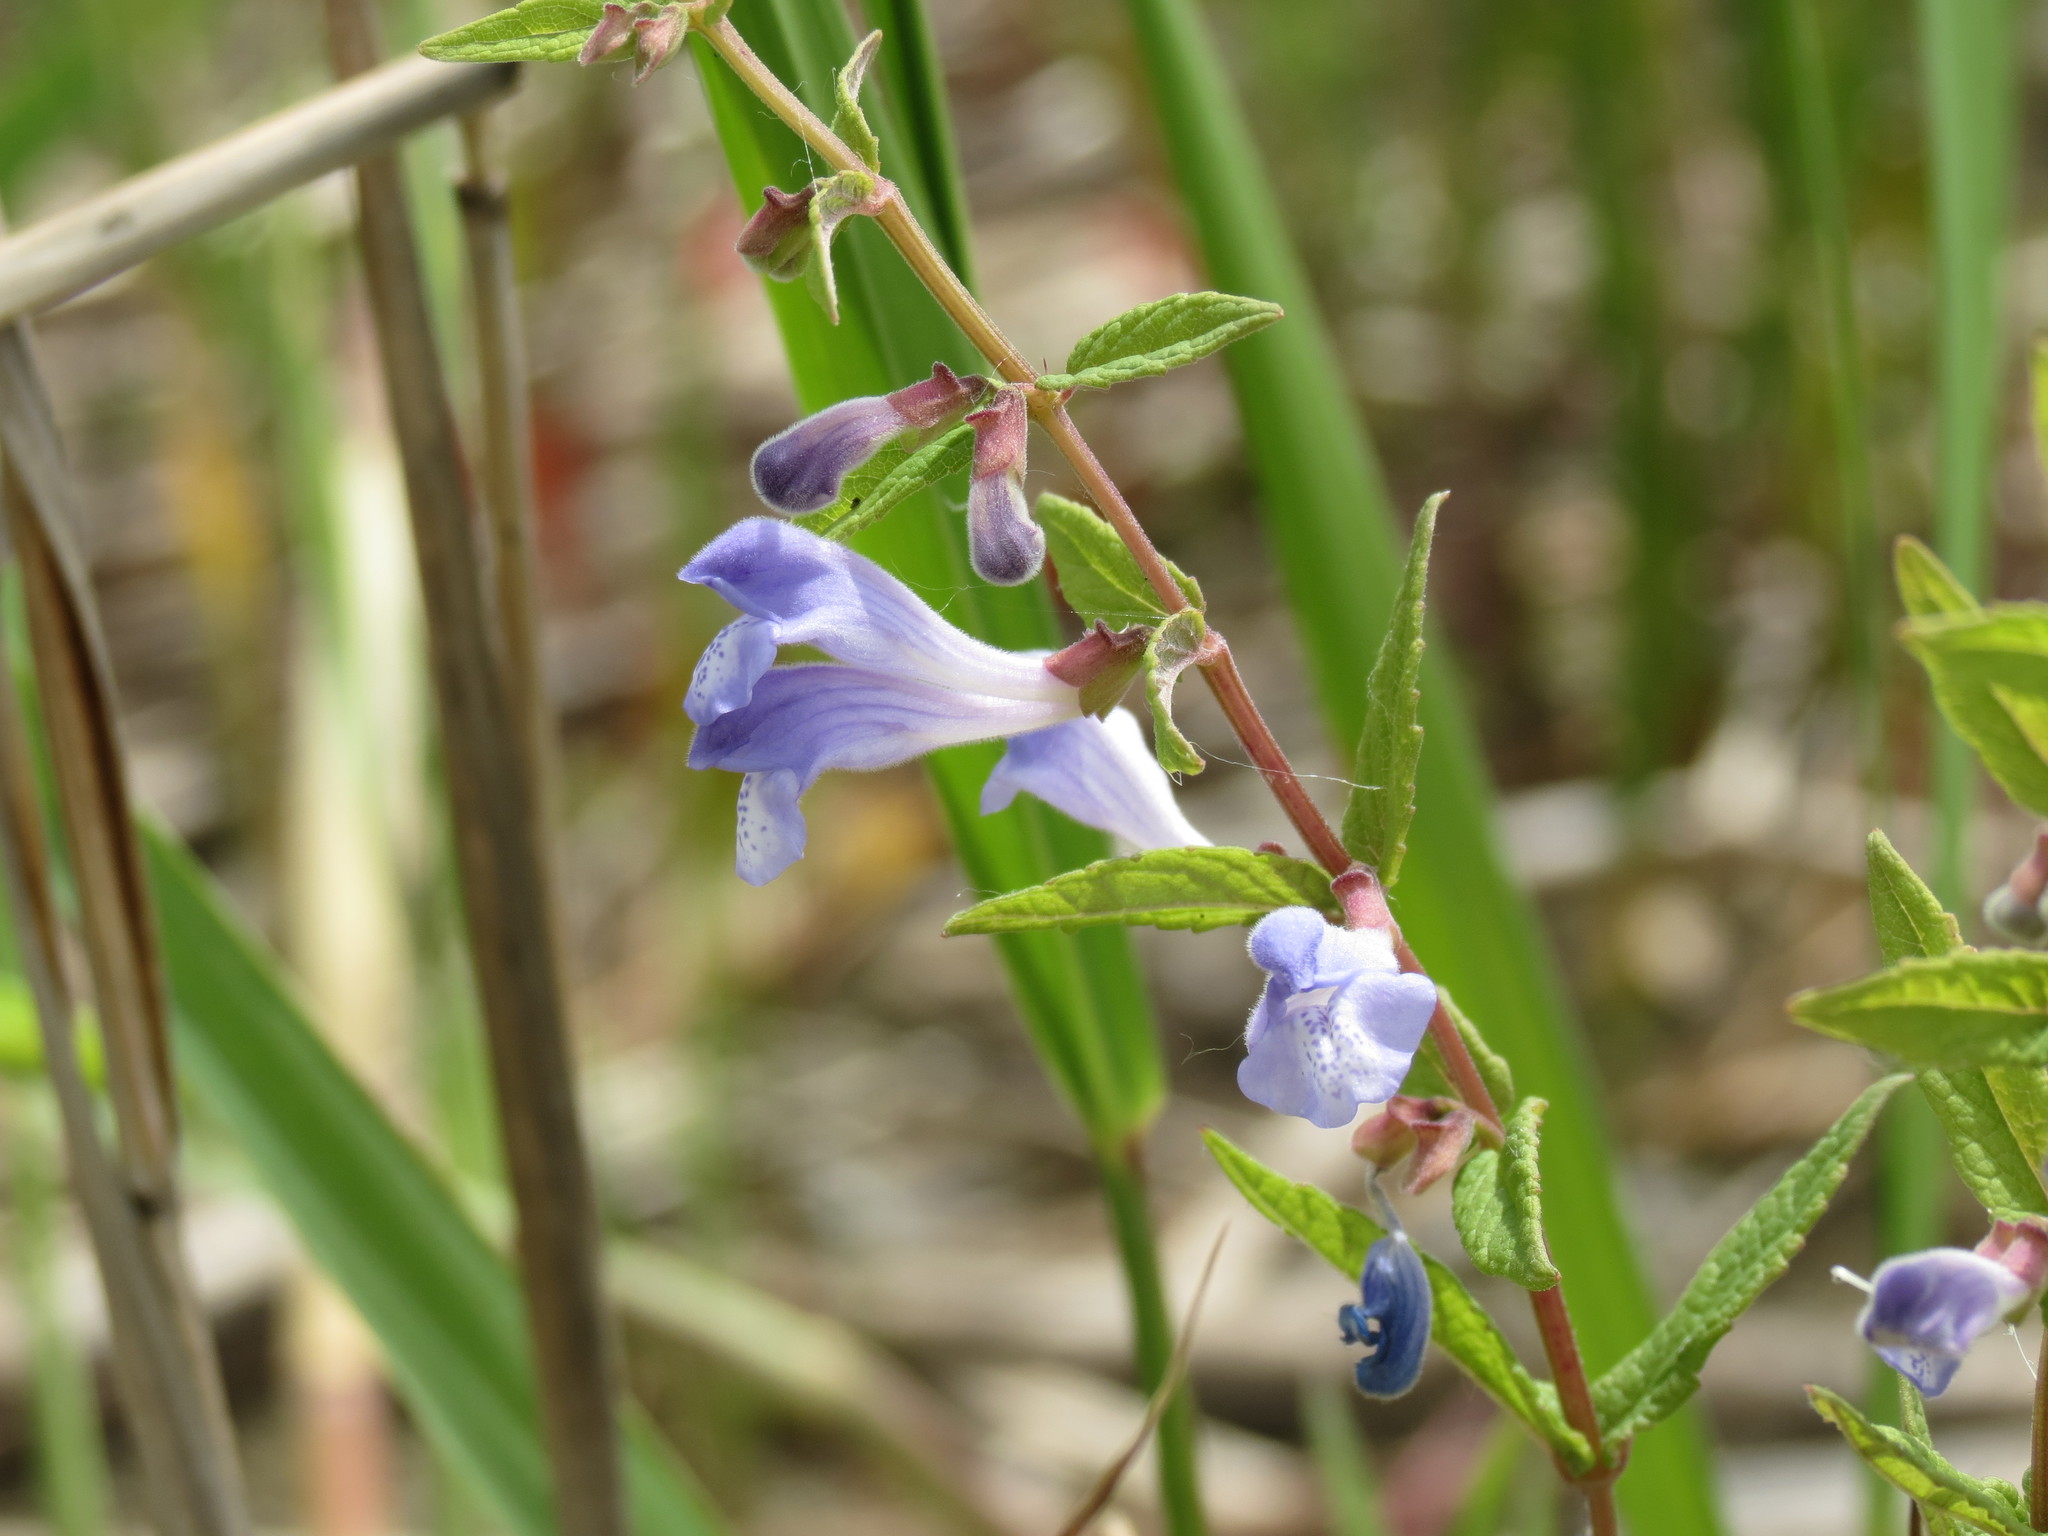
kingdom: Plantae
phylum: Tracheophyta
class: Magnoliopsida
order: Lamiales
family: Lamiaceae
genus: Scutellaria
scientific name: Scutellaria galericulata
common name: Skullcap
